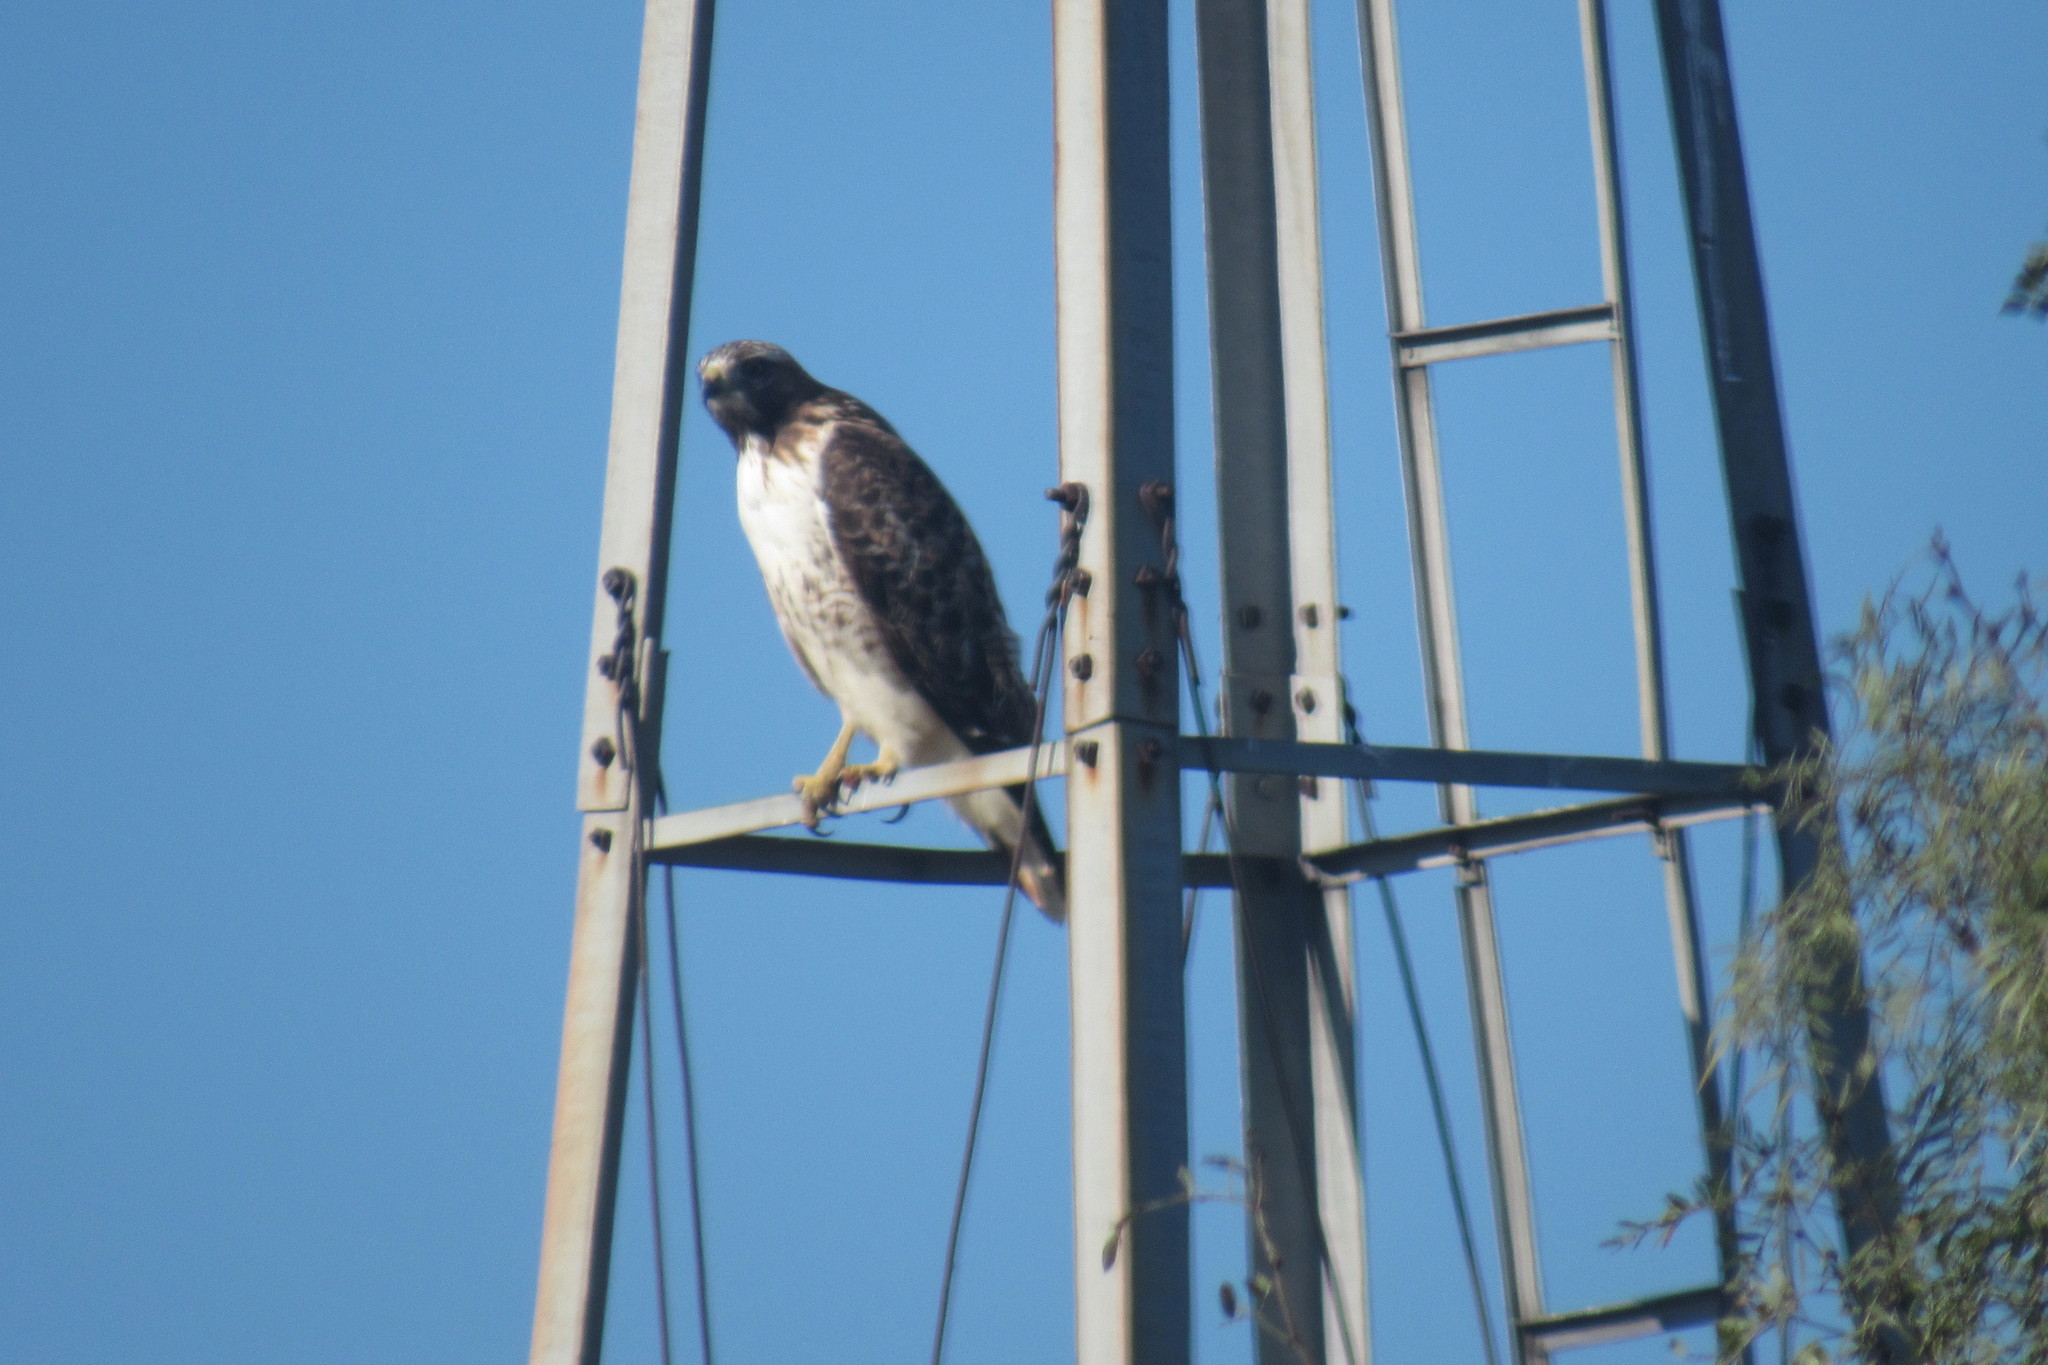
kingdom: Animalia
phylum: Chordata
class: Aves
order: Accipitriformes
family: Accipitridae
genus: Buteo
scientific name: Buteo swainsoni
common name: Swainson's hawk
